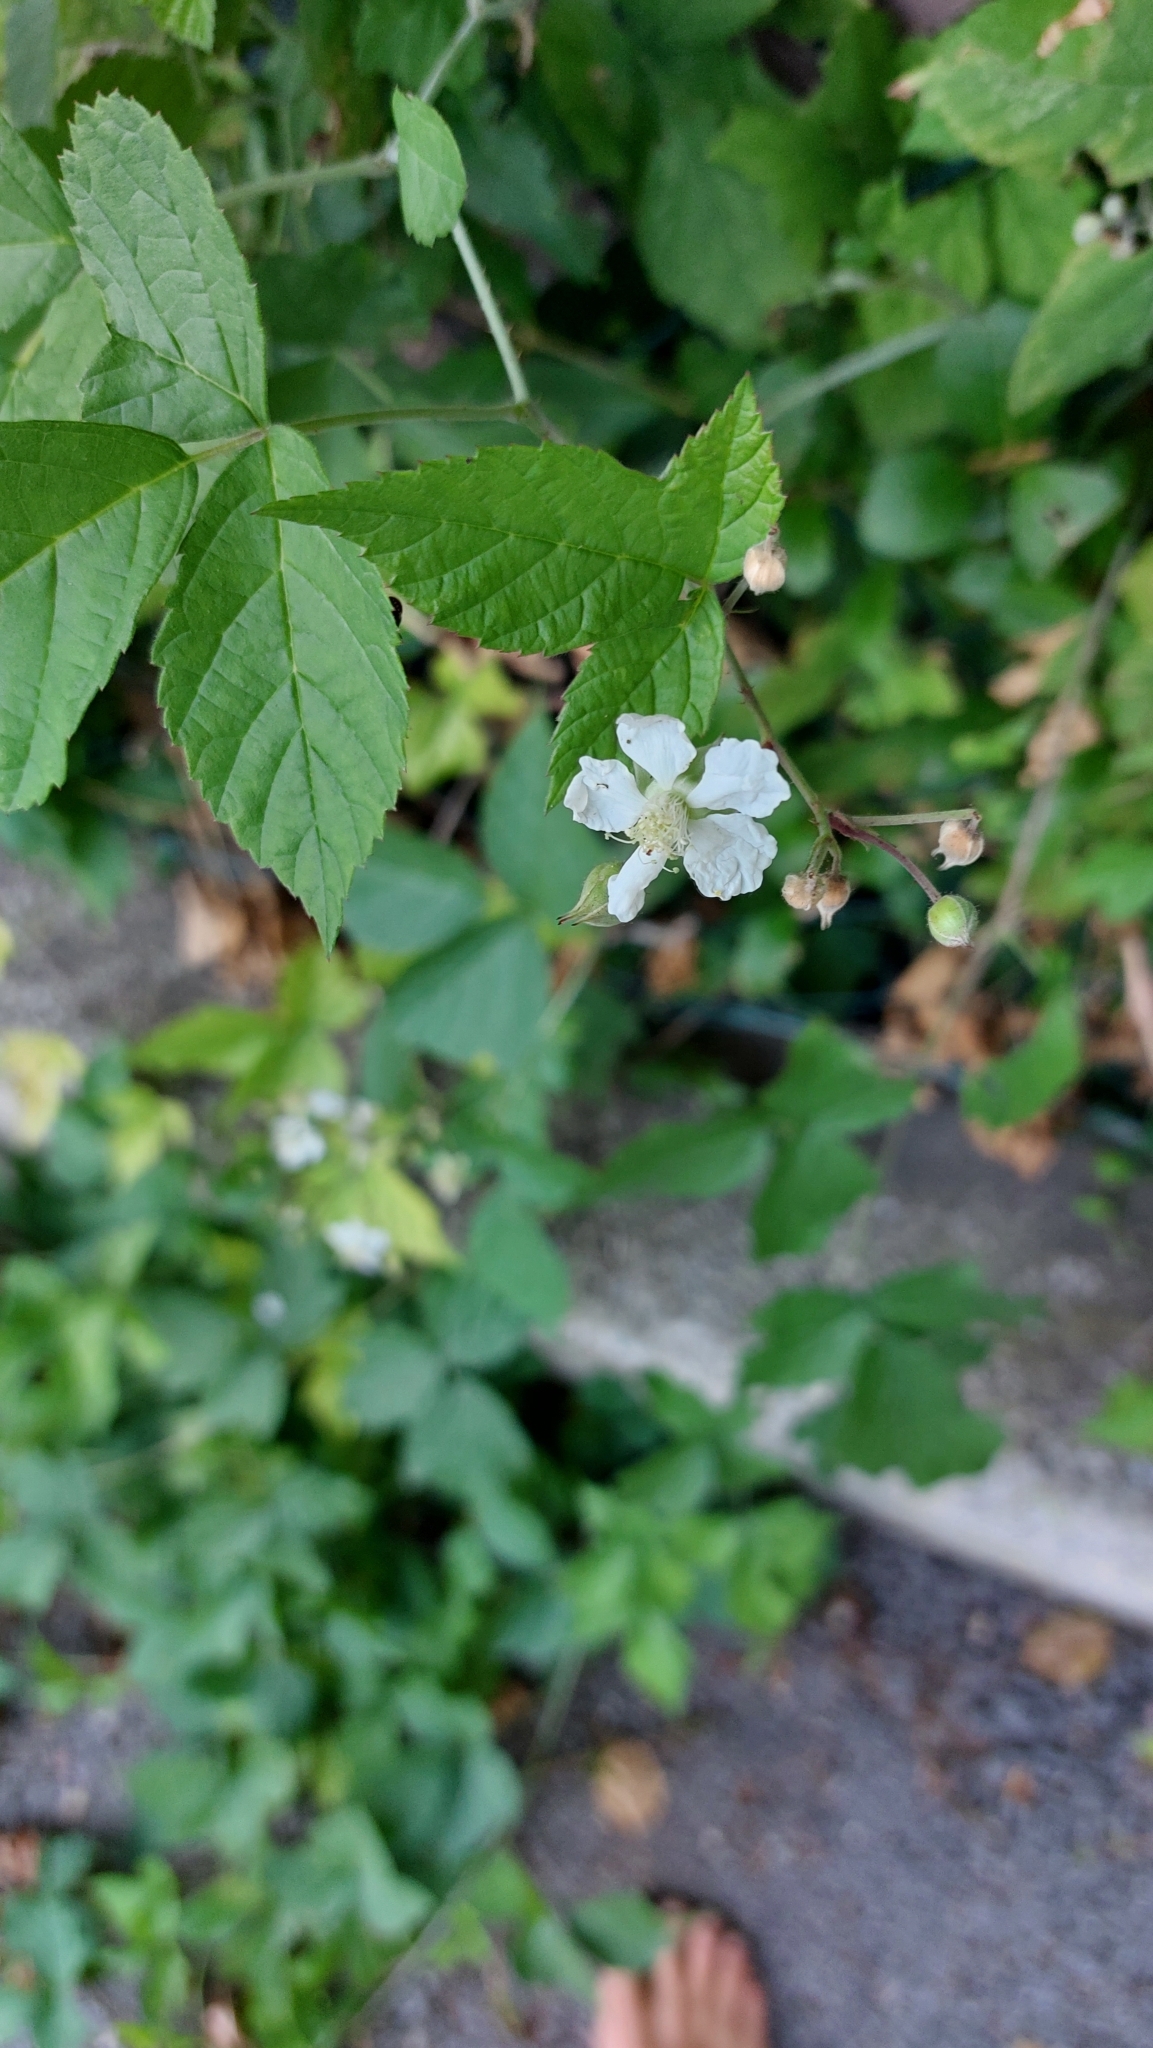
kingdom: Plantae
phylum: Tracheophyta
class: Magnoliopsida
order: Rosales
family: Rosaceae
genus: Rubus
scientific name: Rubus caesius
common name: Dewberry
